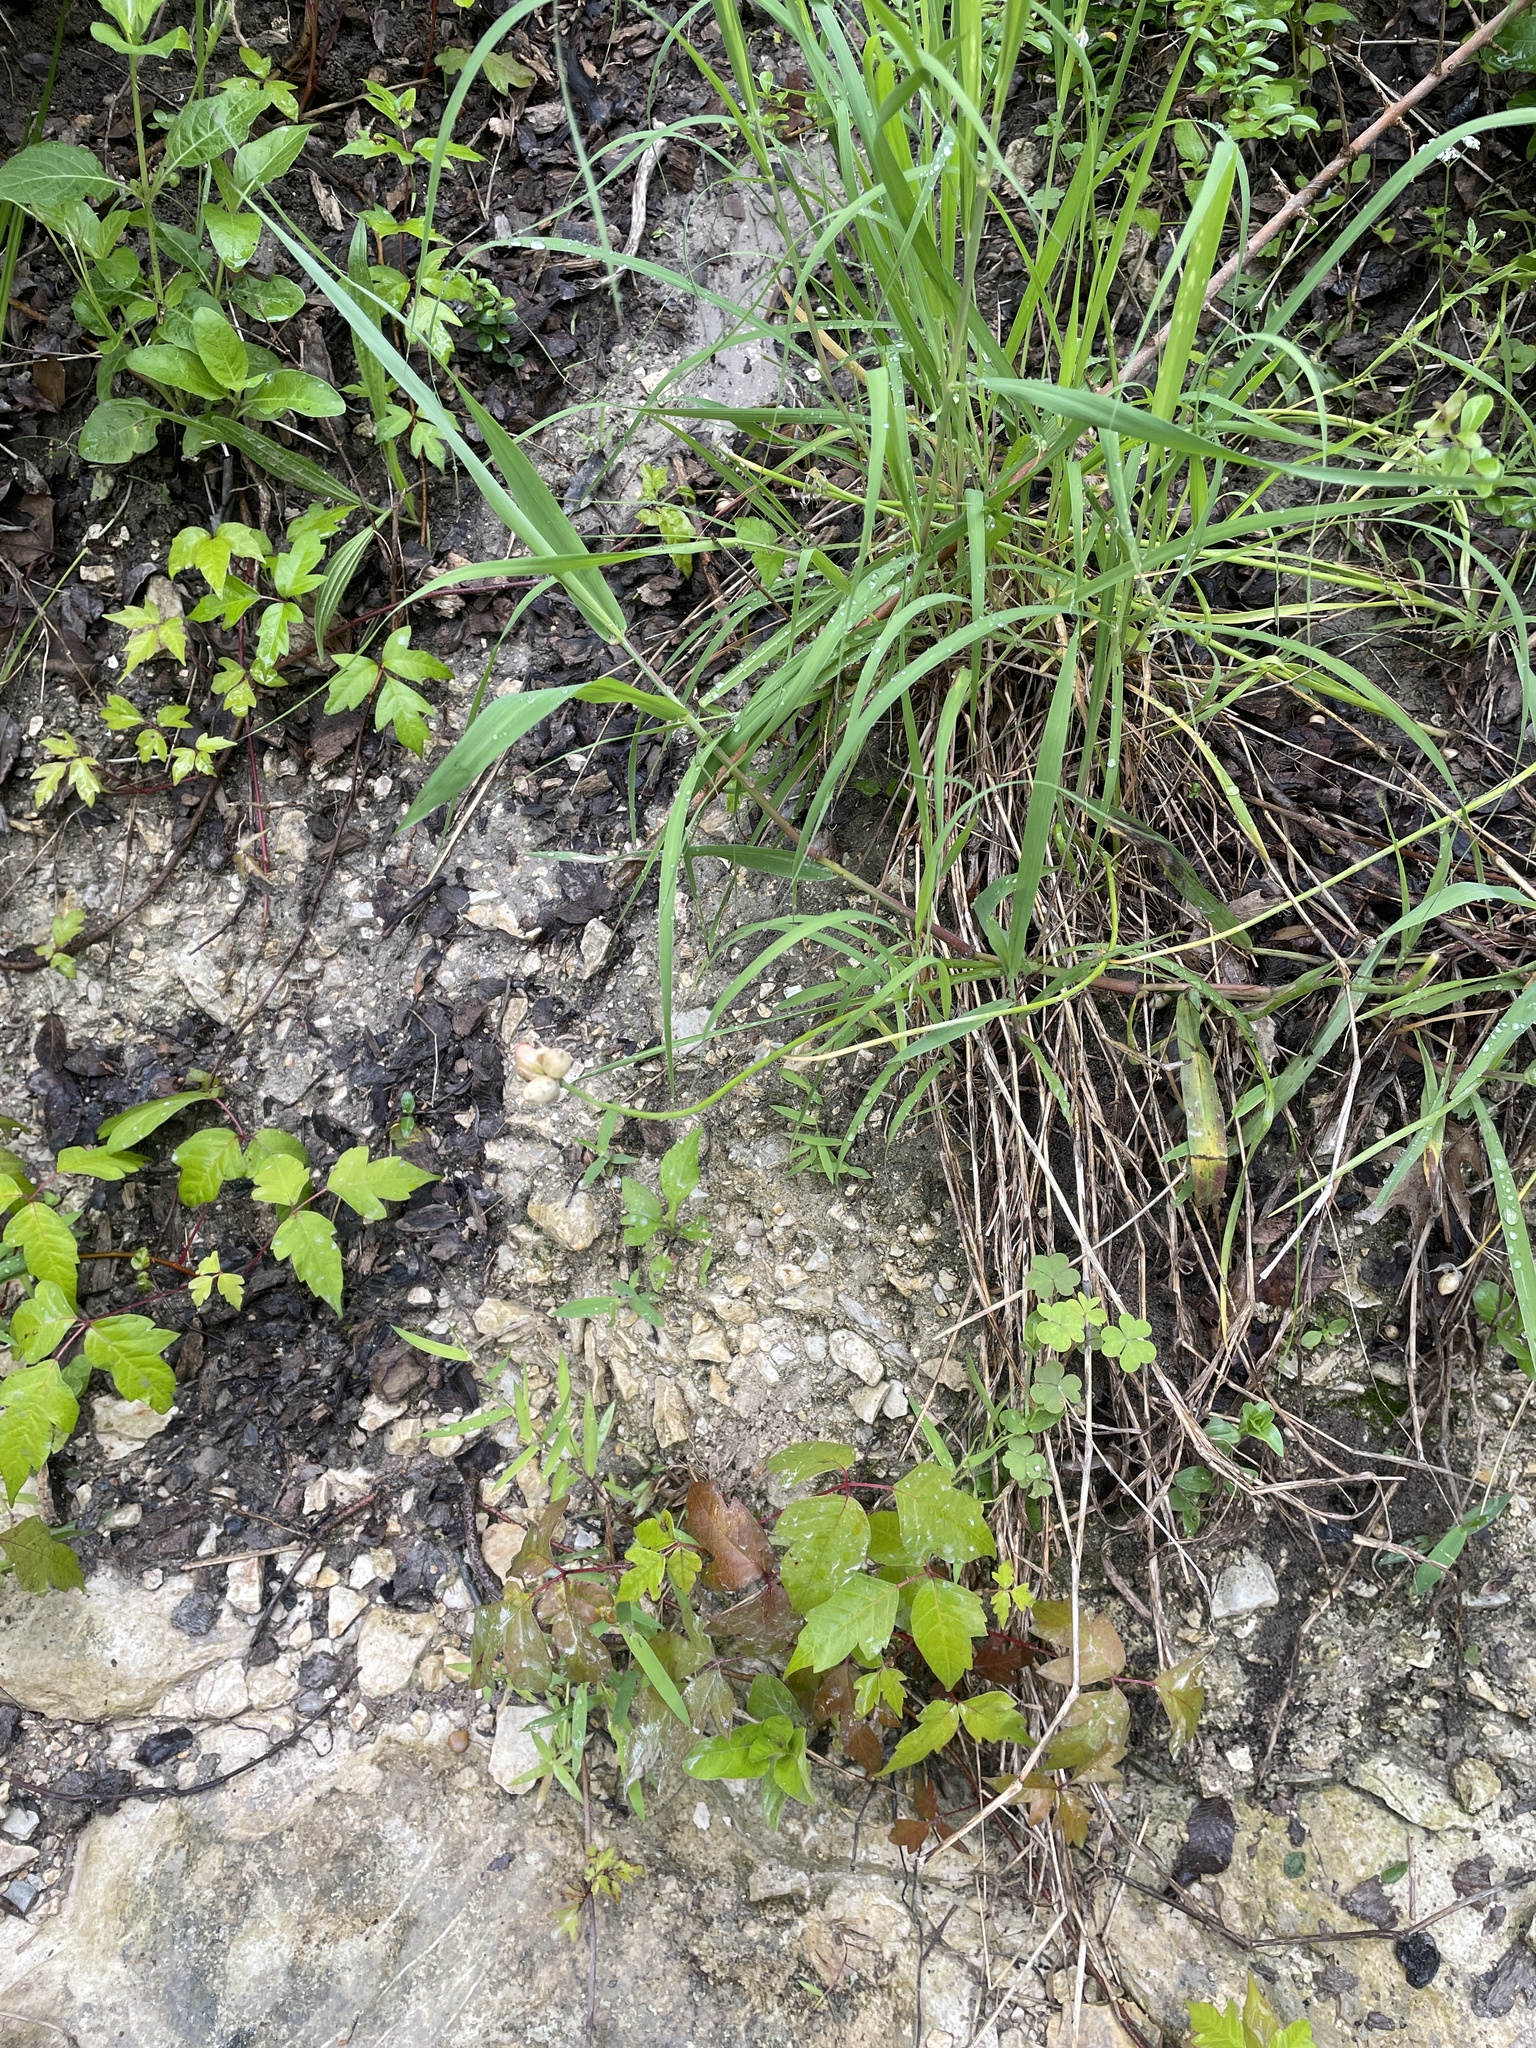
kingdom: Plantae
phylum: Tracheophyta
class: Liliopsida
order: Asparagales
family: Amaryllidaceae
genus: Allium
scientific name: Allium canadense
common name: Meadow garlic
